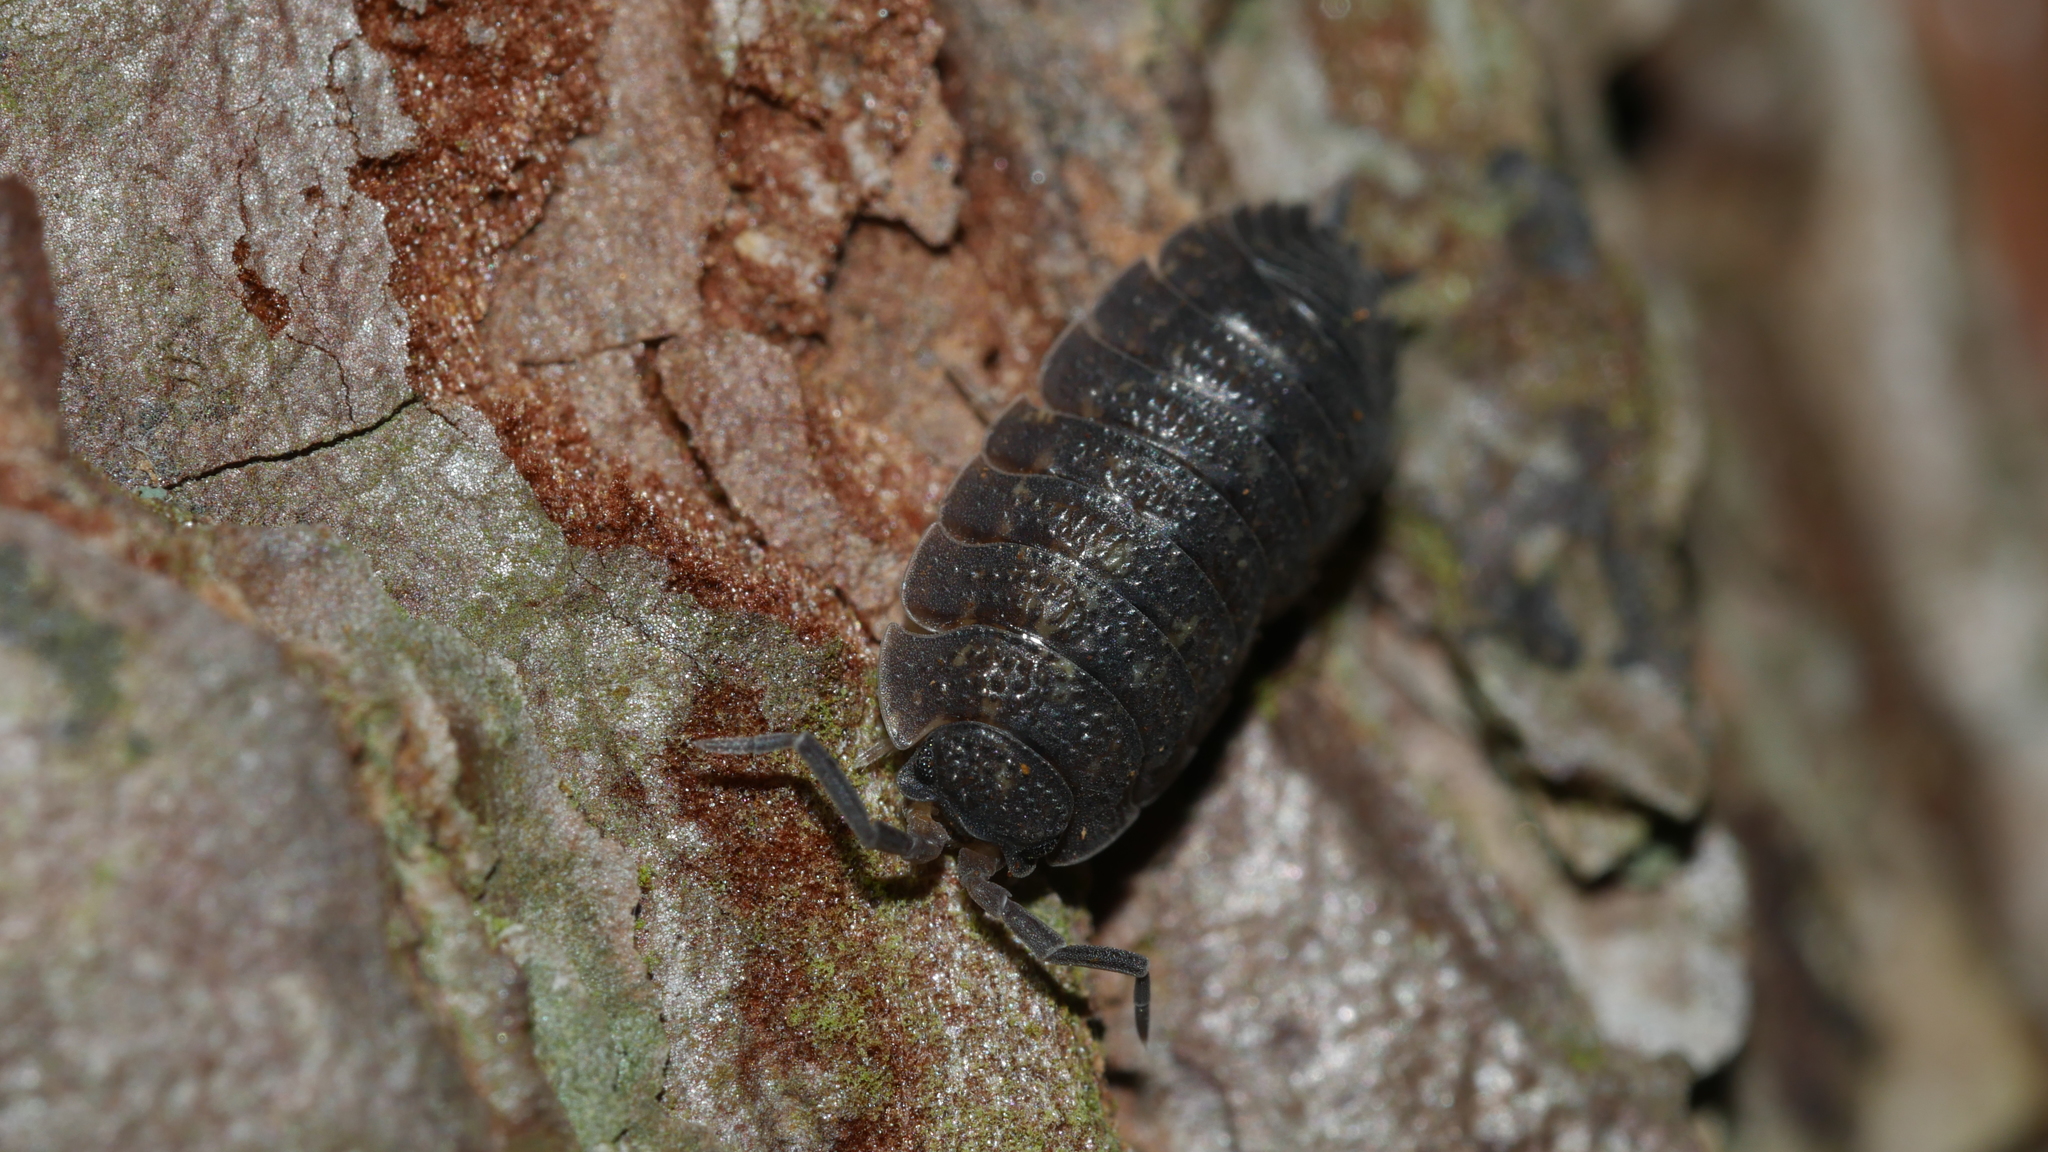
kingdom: Animalia
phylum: Arthropoda
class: Malacostraca
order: Isopoda
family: Porcellionidae
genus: Porcellio
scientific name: Porcellio scaber
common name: Common rough woodlouse
